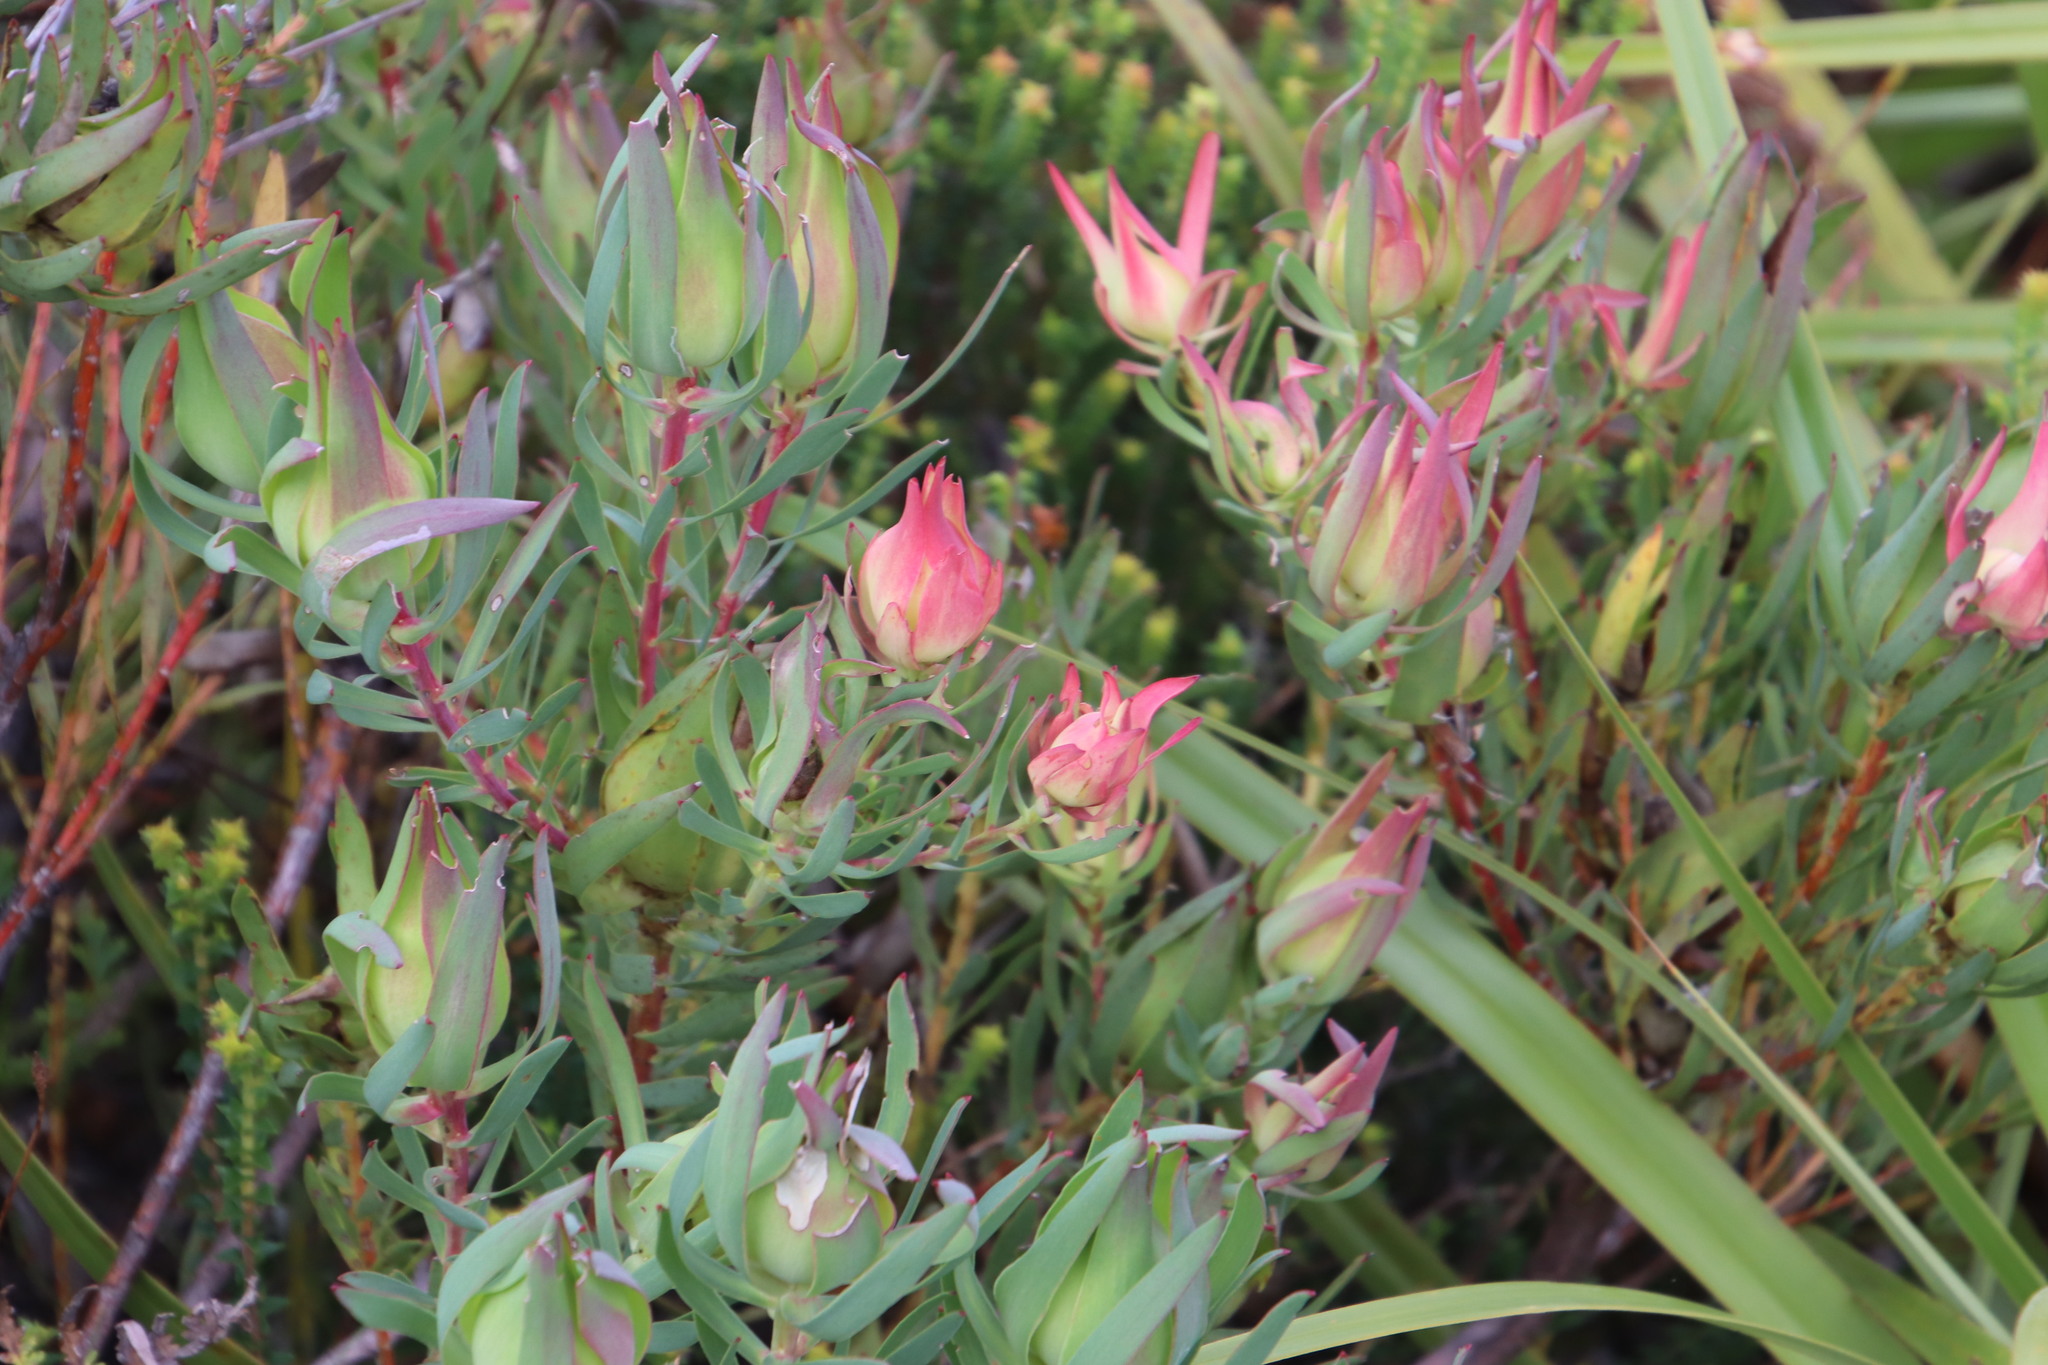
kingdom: Plantae
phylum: Tracheophyta
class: Magnoliopsida
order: Proteales
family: Proteaceae
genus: Leucadendron
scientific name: Leucadendron salignum
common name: Common sunshine conebush
